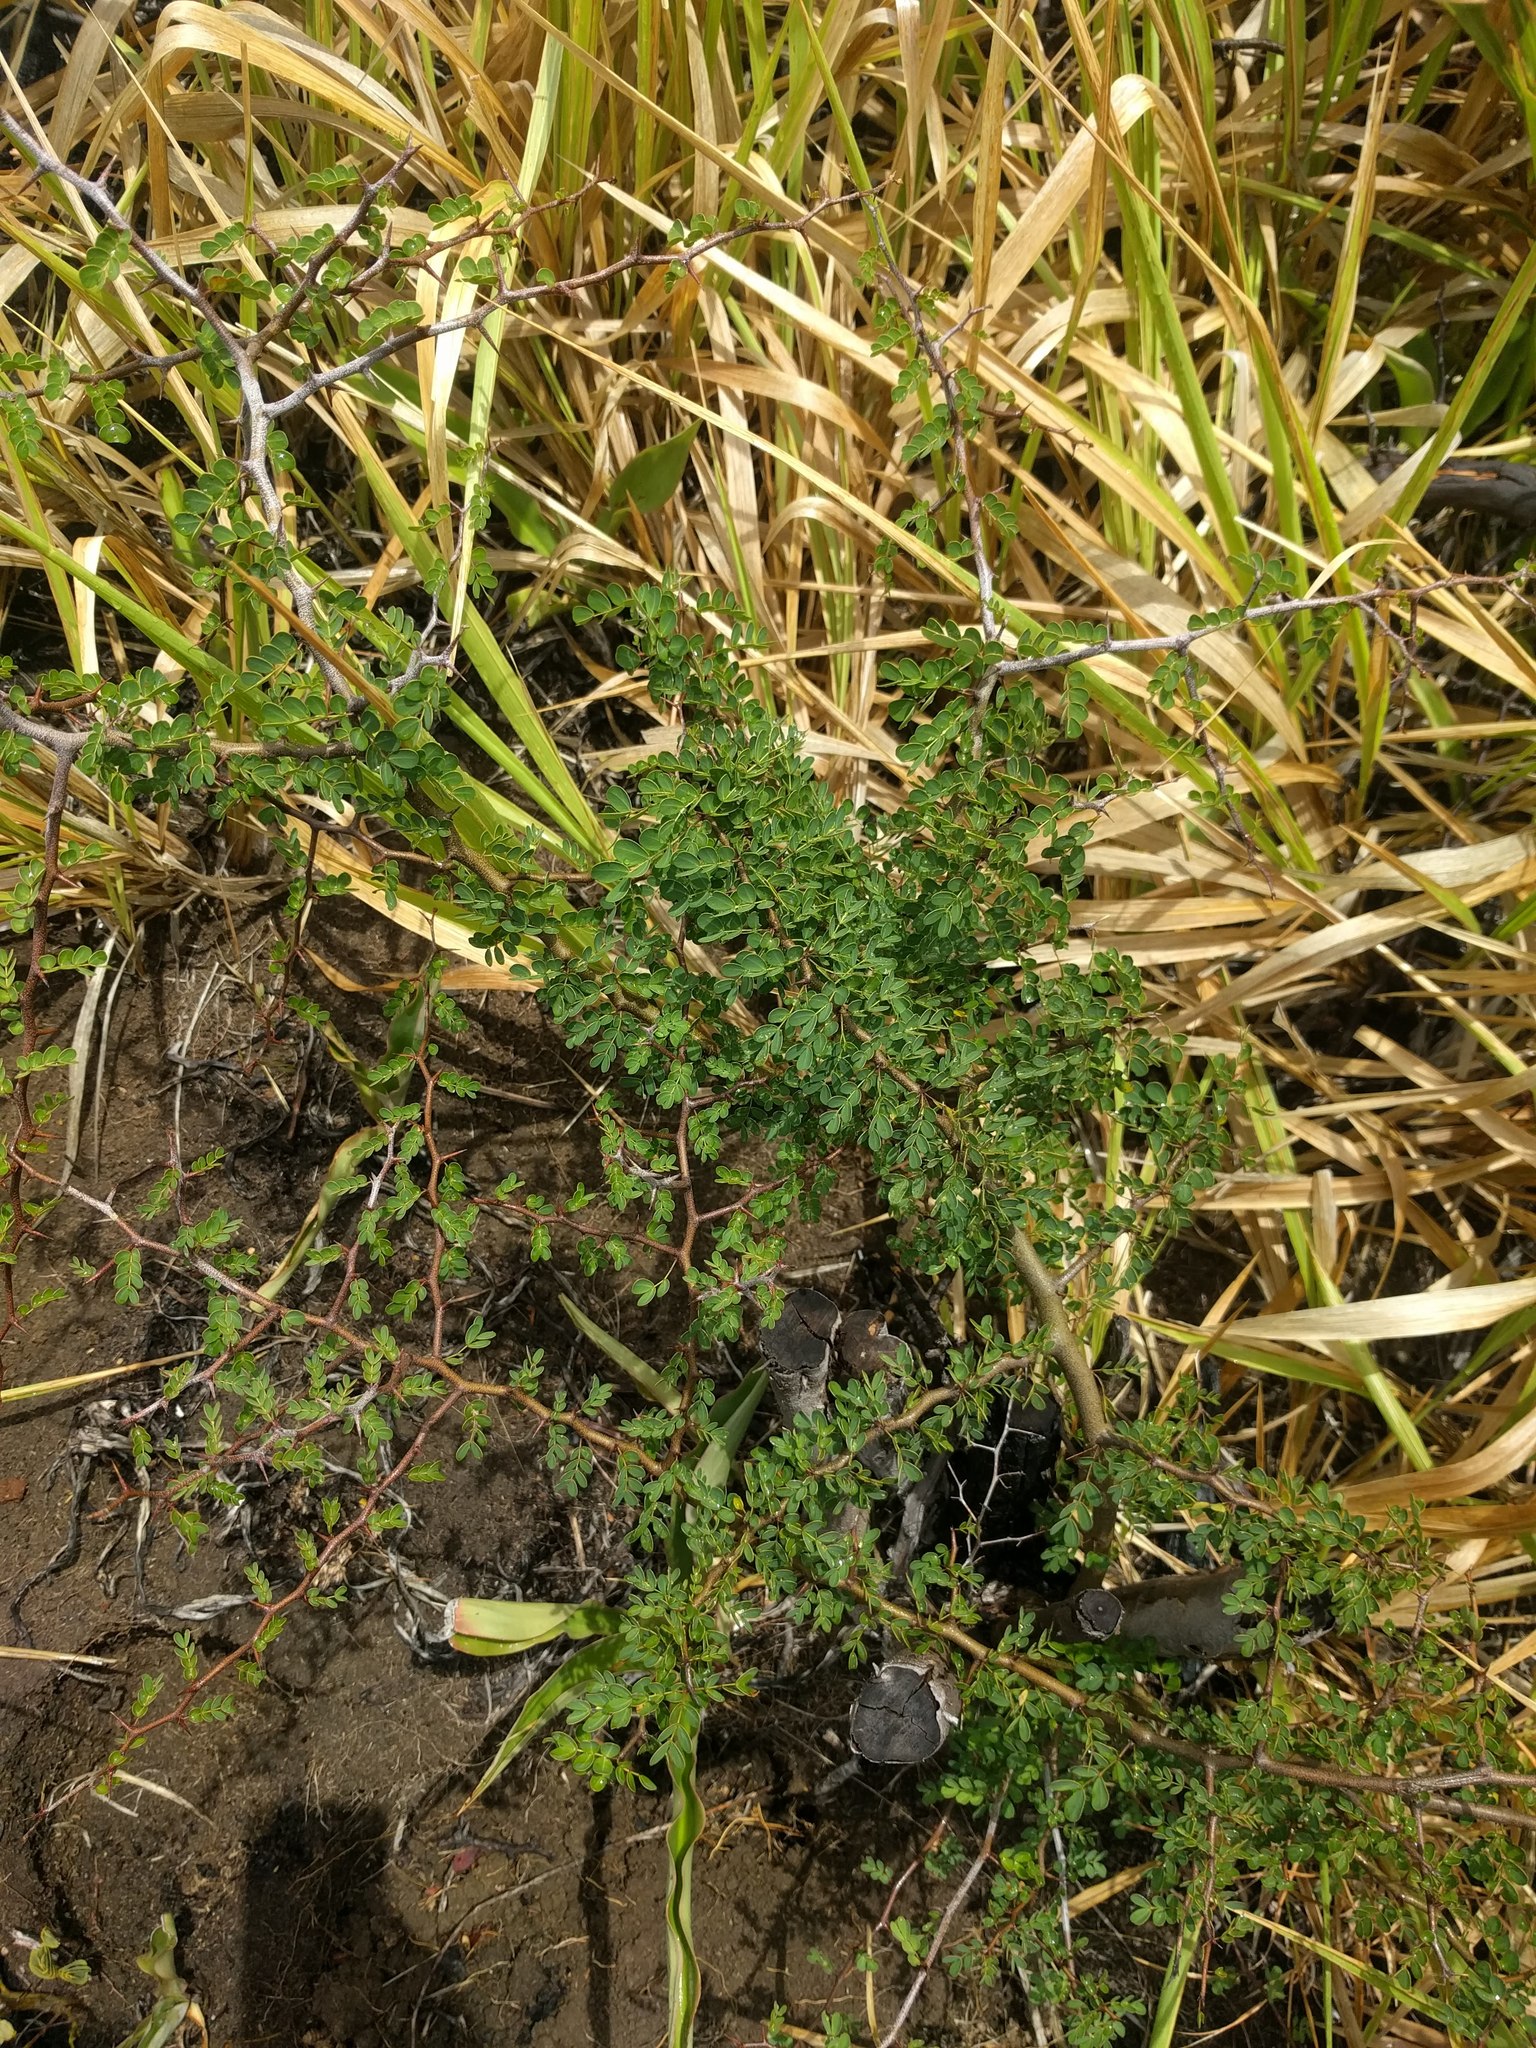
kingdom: Plantae
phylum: Tracheophyta
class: Magnoliopsida
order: Fabales
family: Fabaceae
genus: Haematoxylum
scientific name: Haematoxylum campechianum
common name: Logwood
